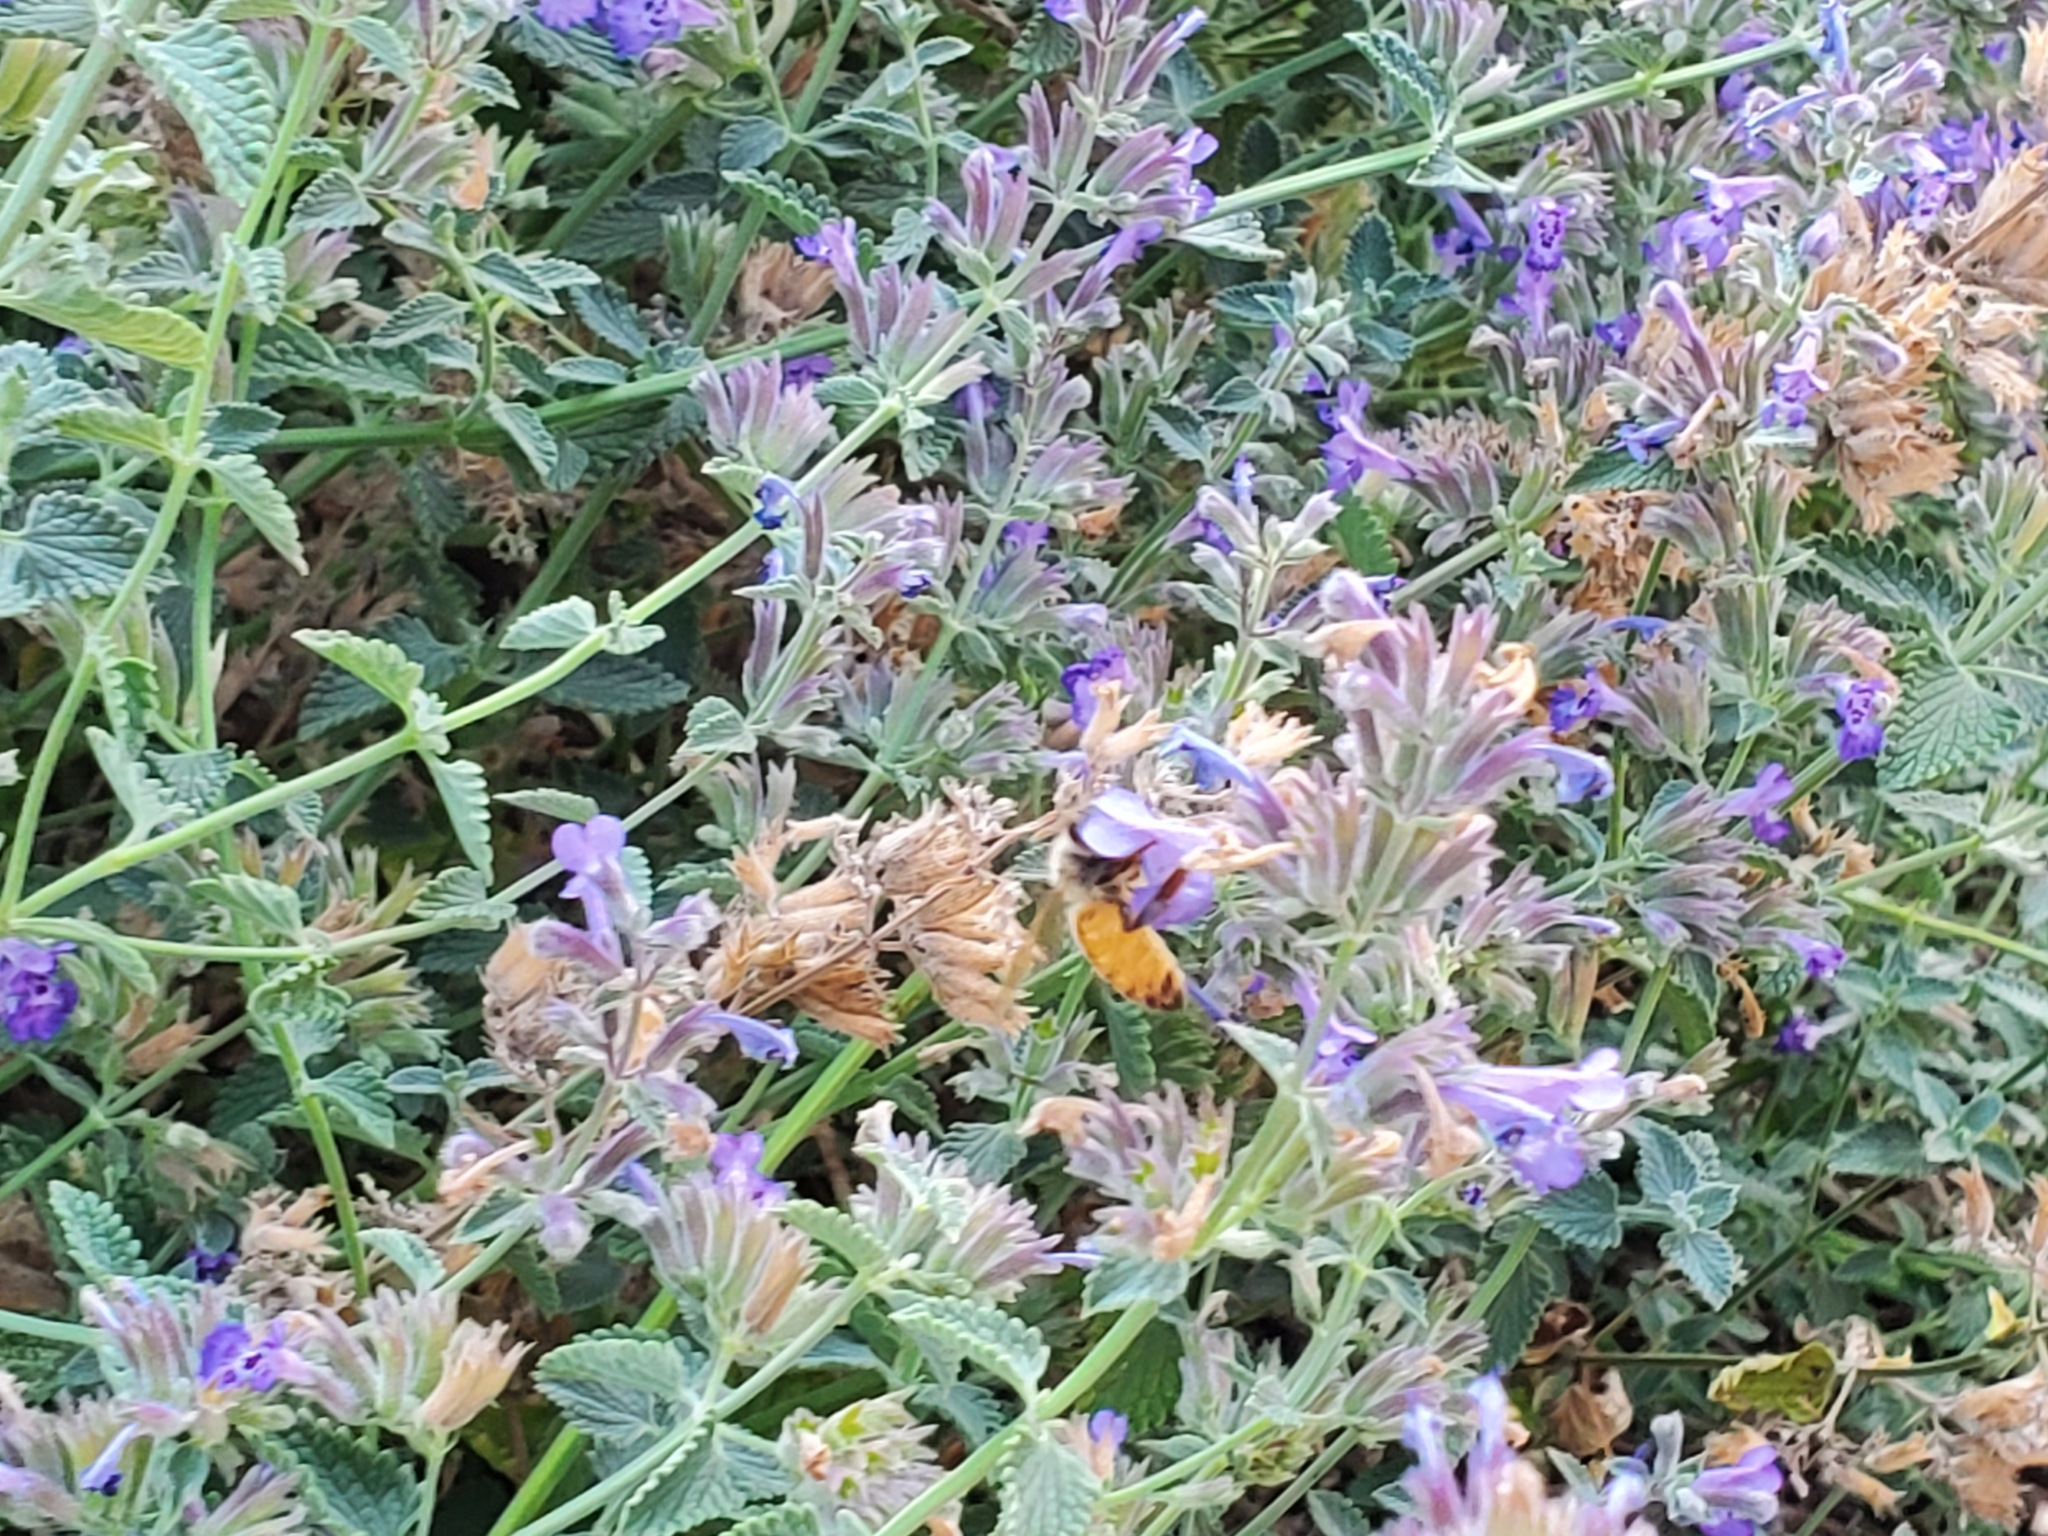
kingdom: Animalia
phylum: Arthropoda
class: Insecta
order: Hymenoptera
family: Apidae
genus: Apis
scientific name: Apis mellifera
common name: Honey bee
